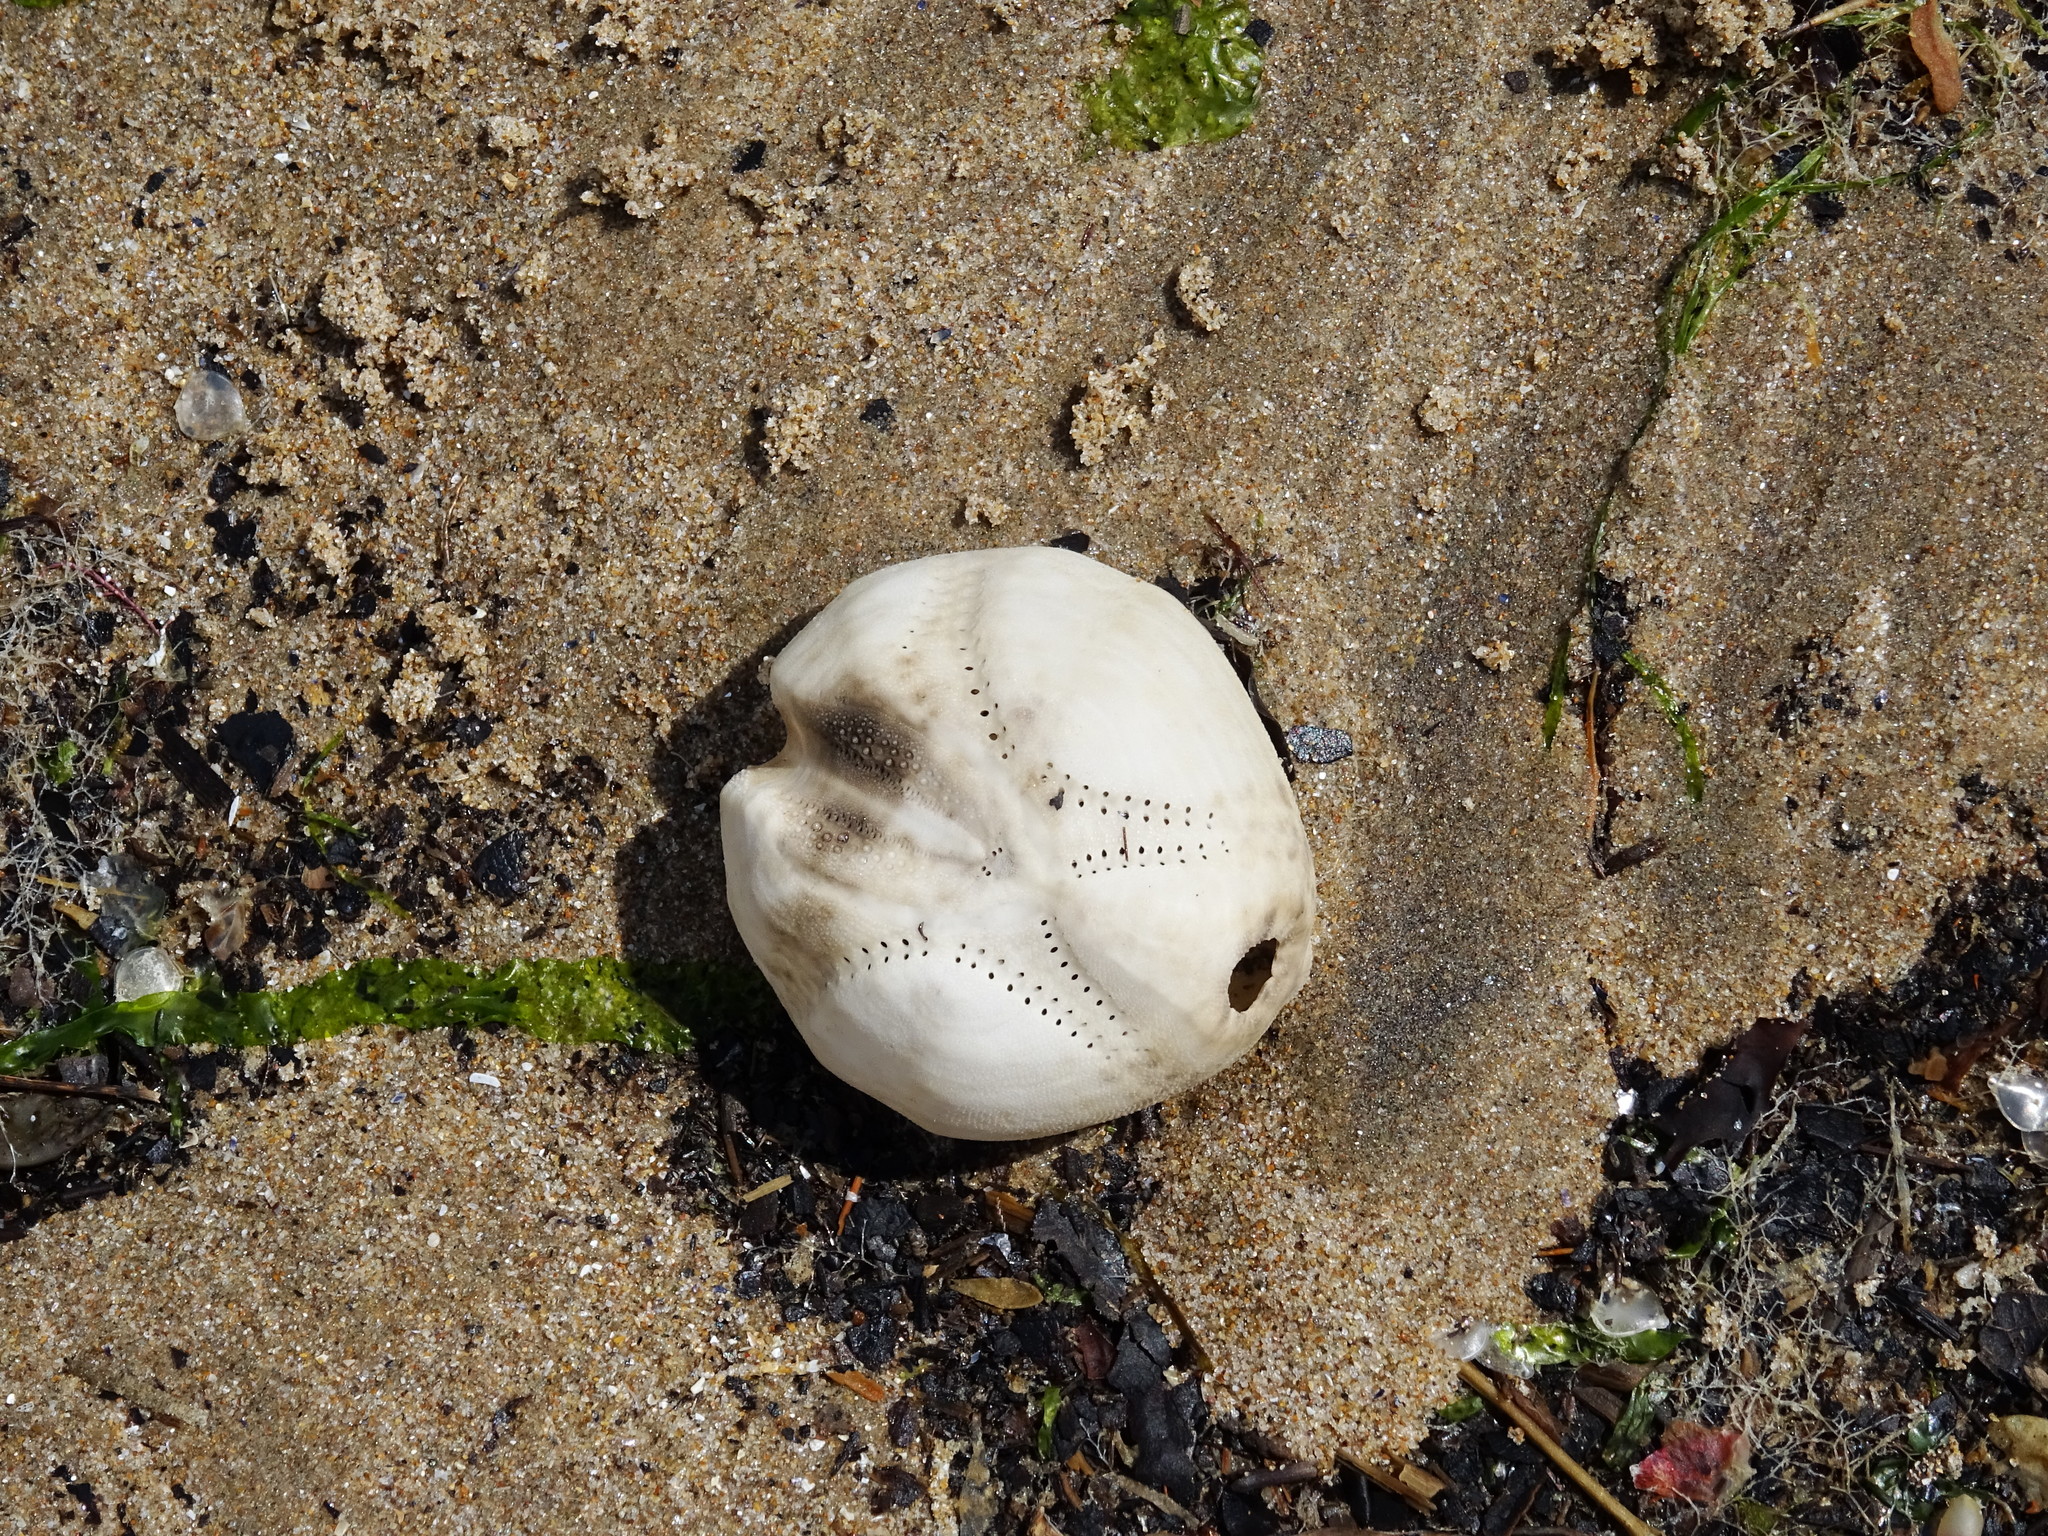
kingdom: Animalia
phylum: Echinodermata
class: Echinoidea
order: Spatangoida
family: Loveniidae
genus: Echinocardium
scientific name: Echinocardium cordatum
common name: Heart-urchin
